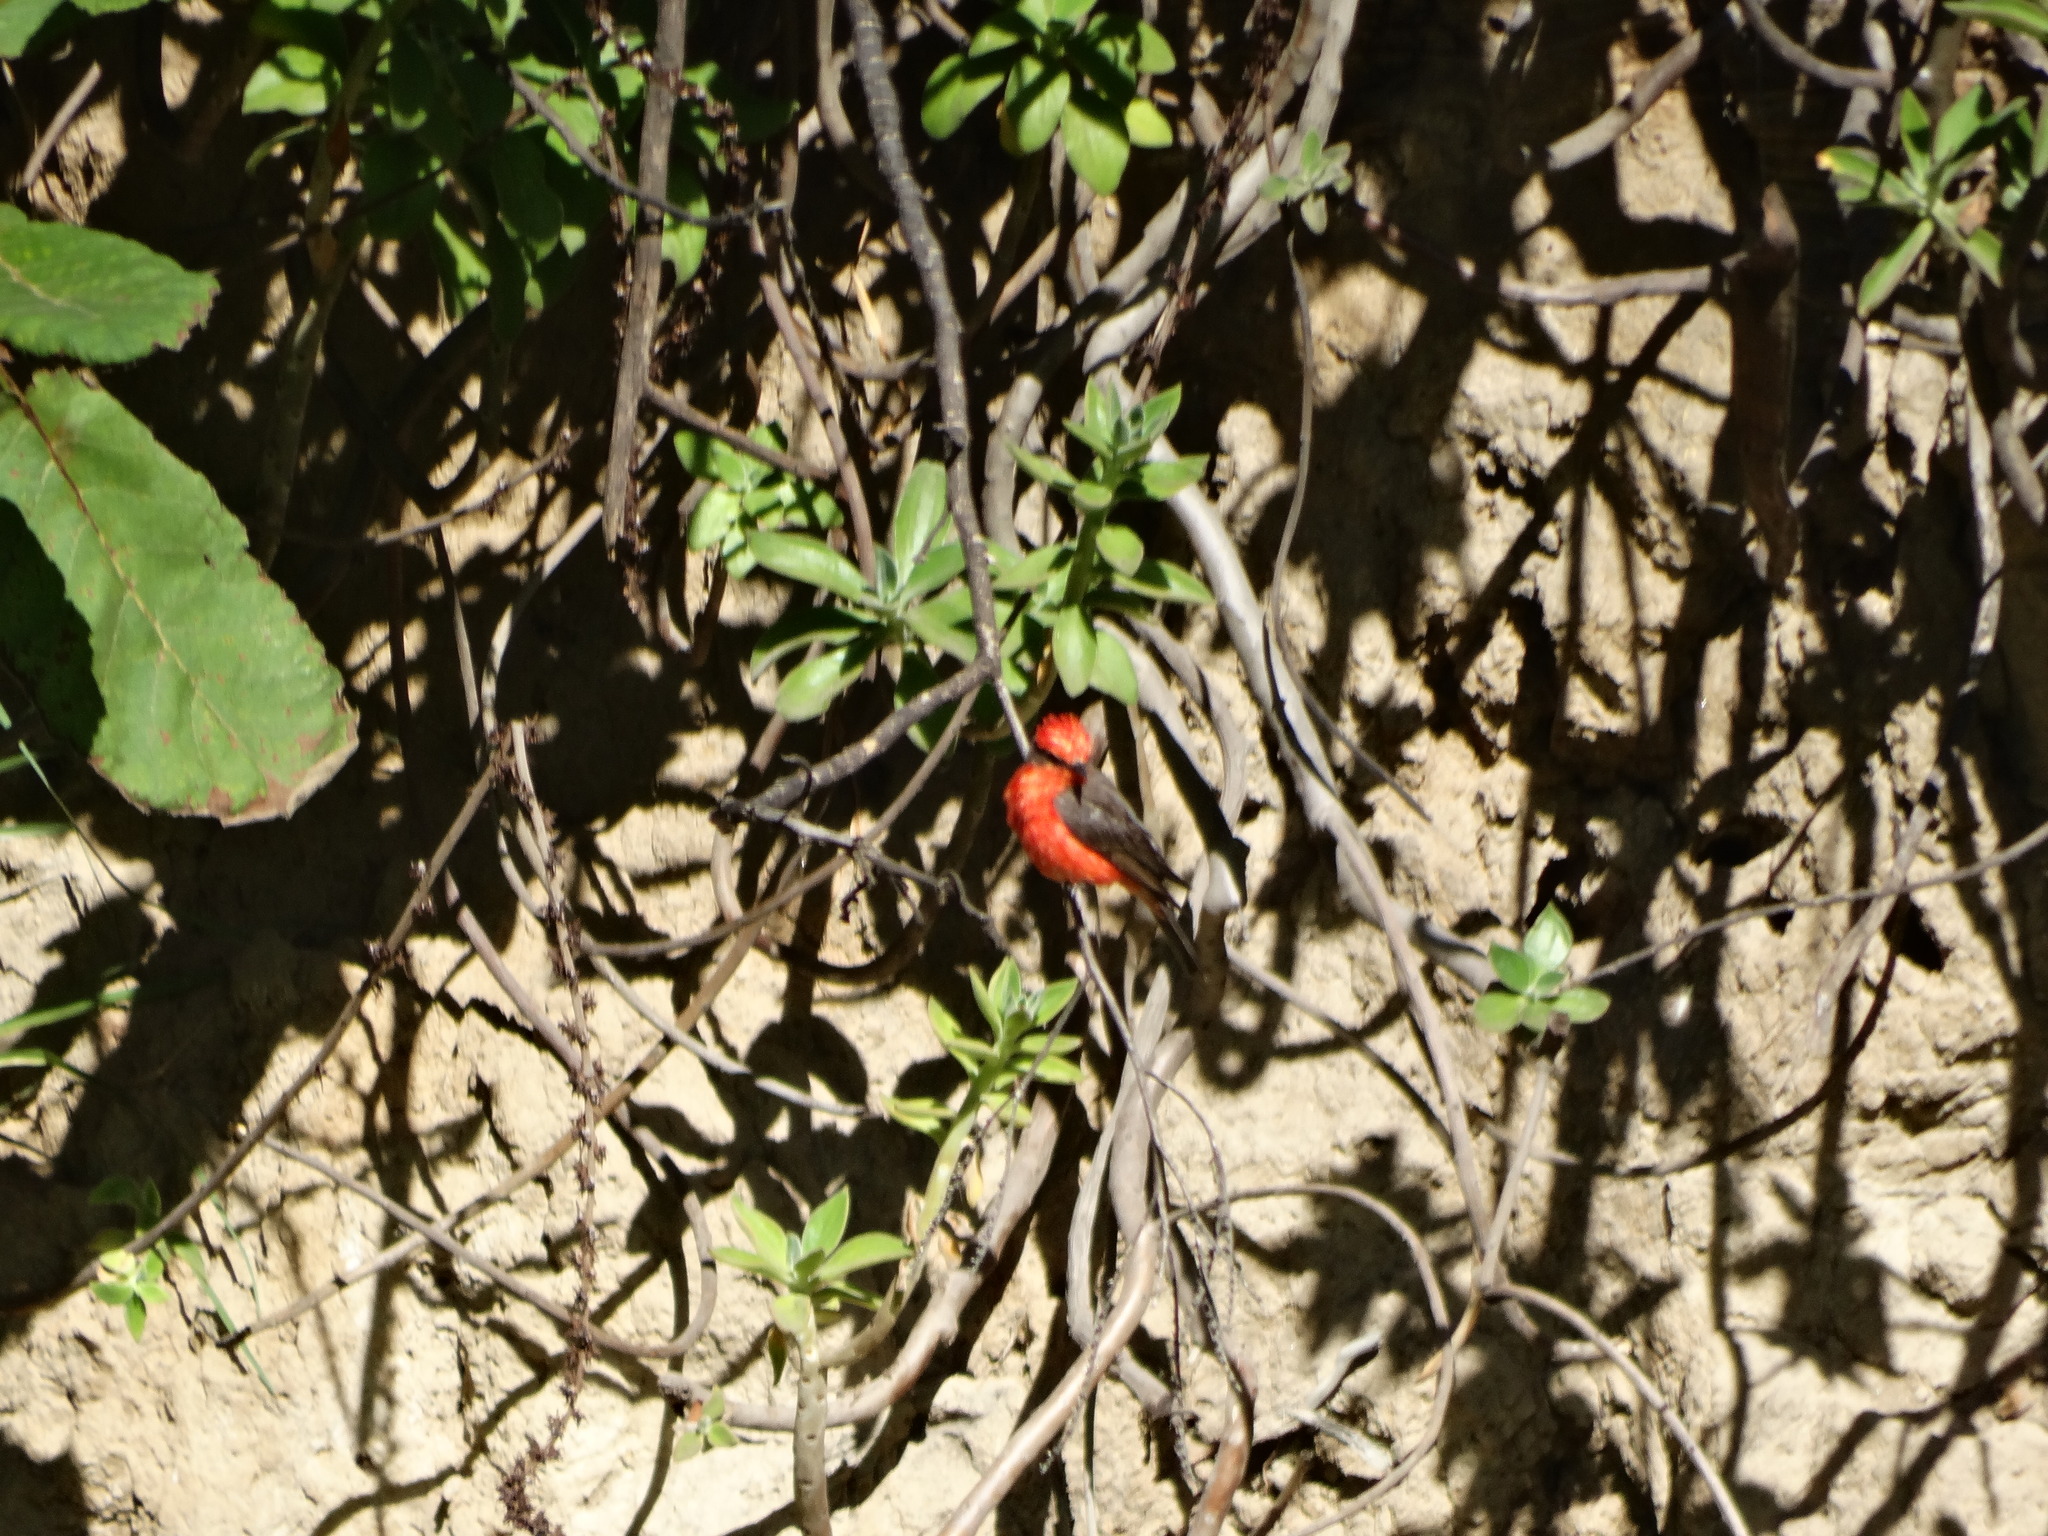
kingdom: Animalia
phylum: Chordata
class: Aves
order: Passeriformes
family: Tyrannidae
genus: Pyrocephalus
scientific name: Pyrocephalus rubinus
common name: Vermilion flycatcher
